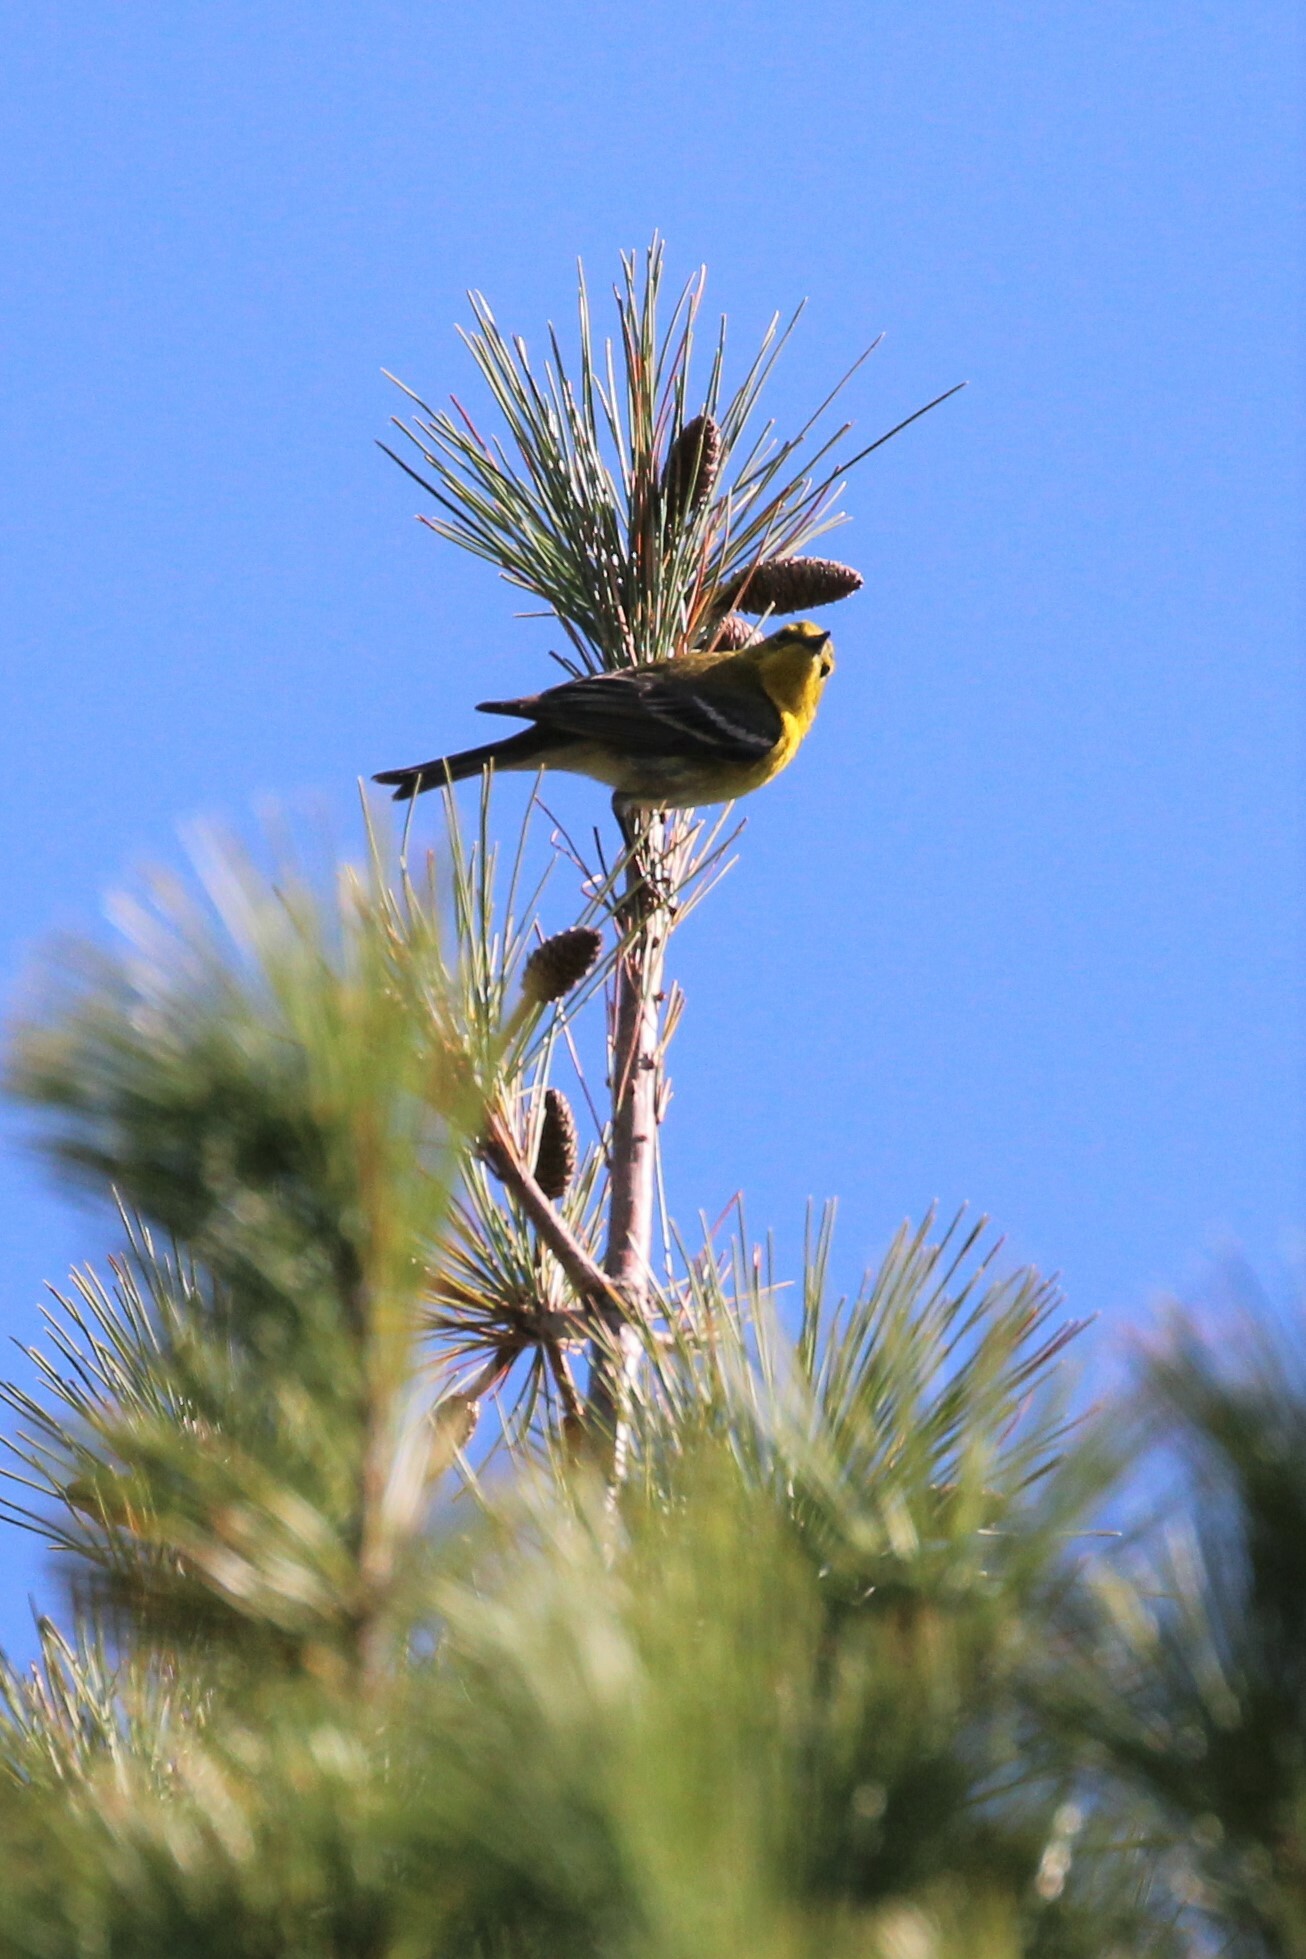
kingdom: Animalia
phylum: Chordata
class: Aves
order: Passeriformes
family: Parulidae
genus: Setophaga
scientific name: Setophaga pinus
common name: Pine warbler
